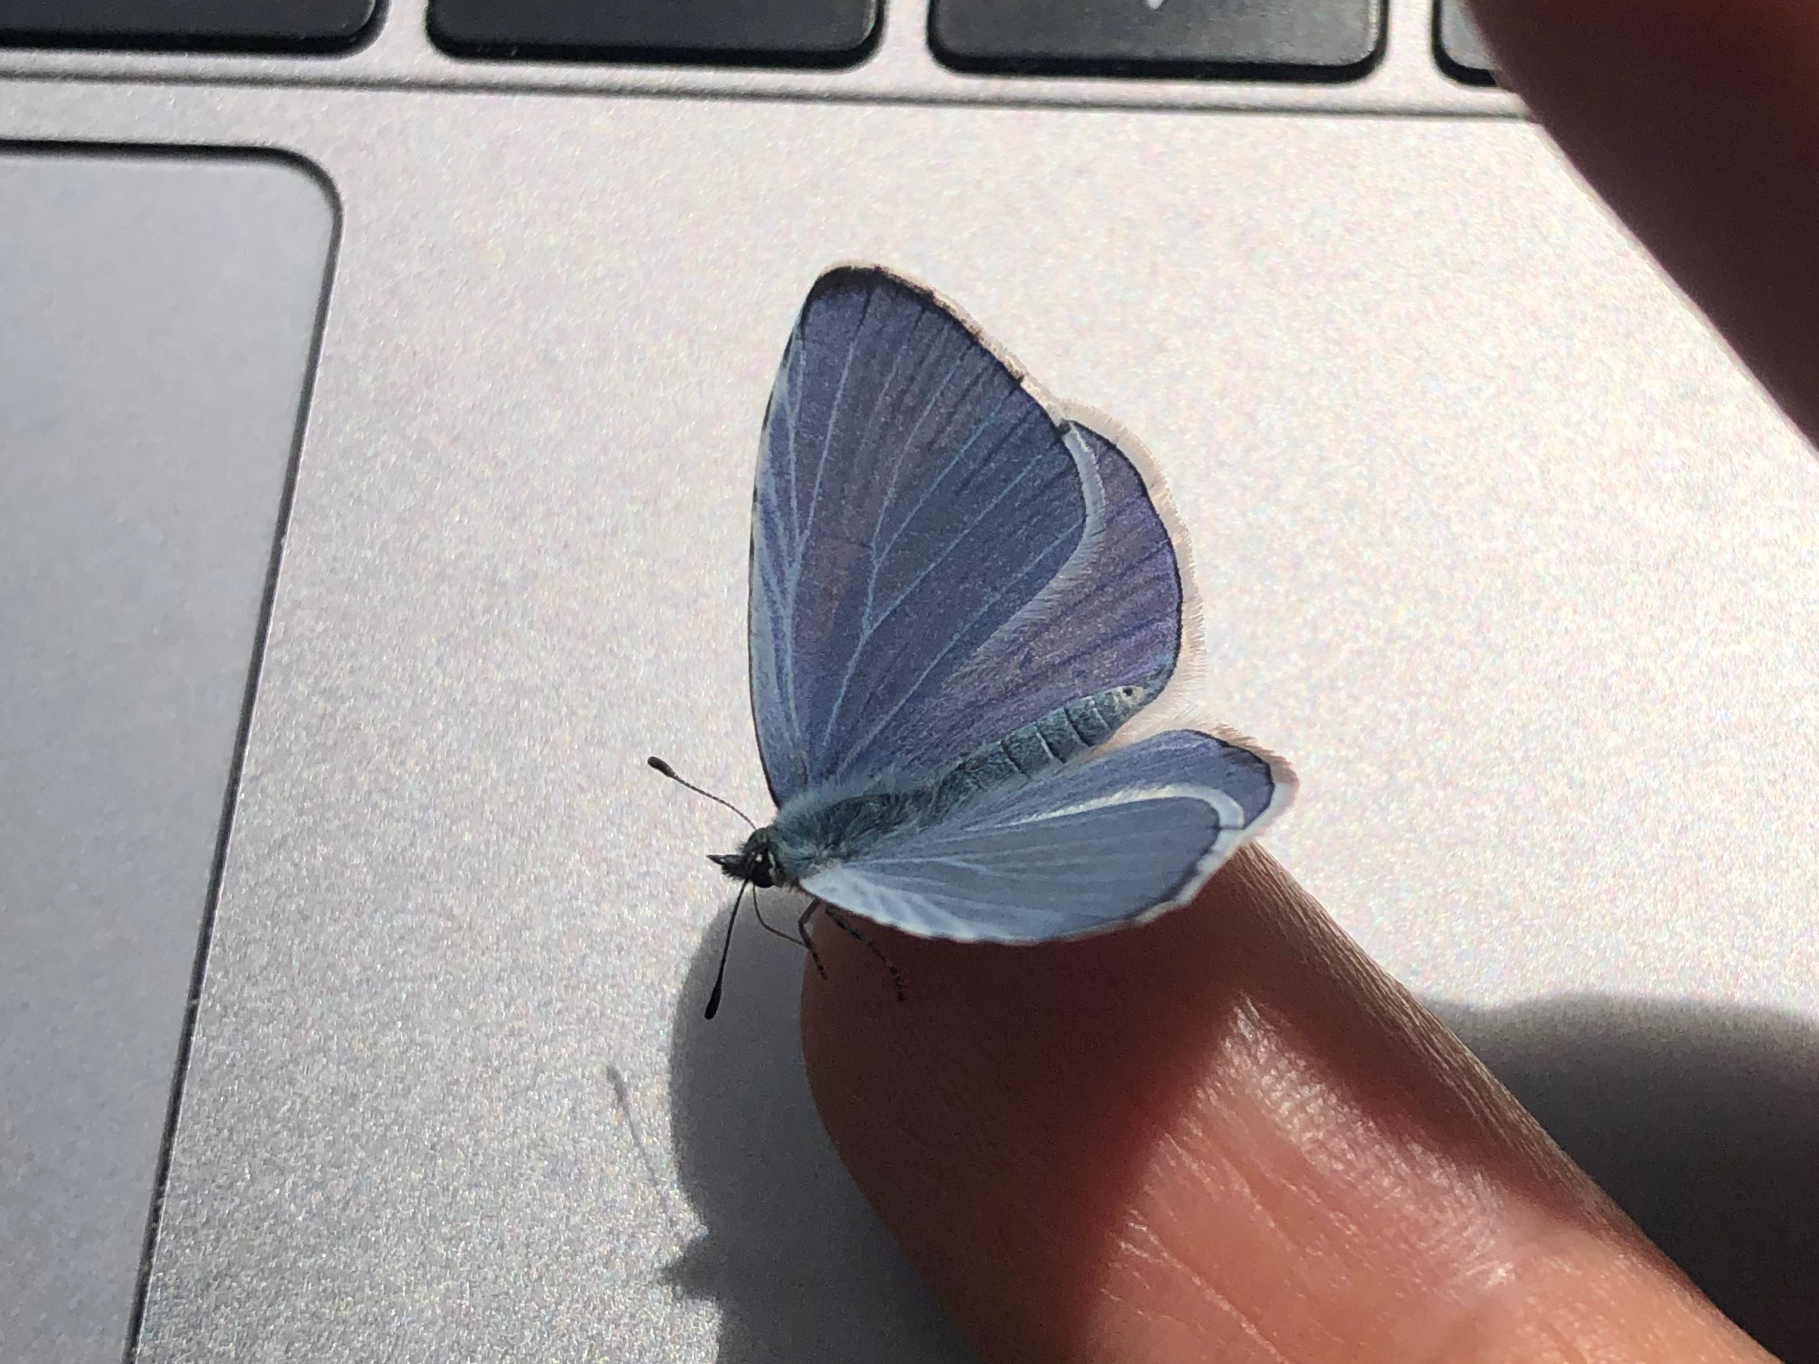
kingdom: Animalia
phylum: Arthropoda
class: Insecta
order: Lepidoptera
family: Lycaenidae
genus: Celastrina
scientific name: Celastrina argiolus
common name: Holly blue
